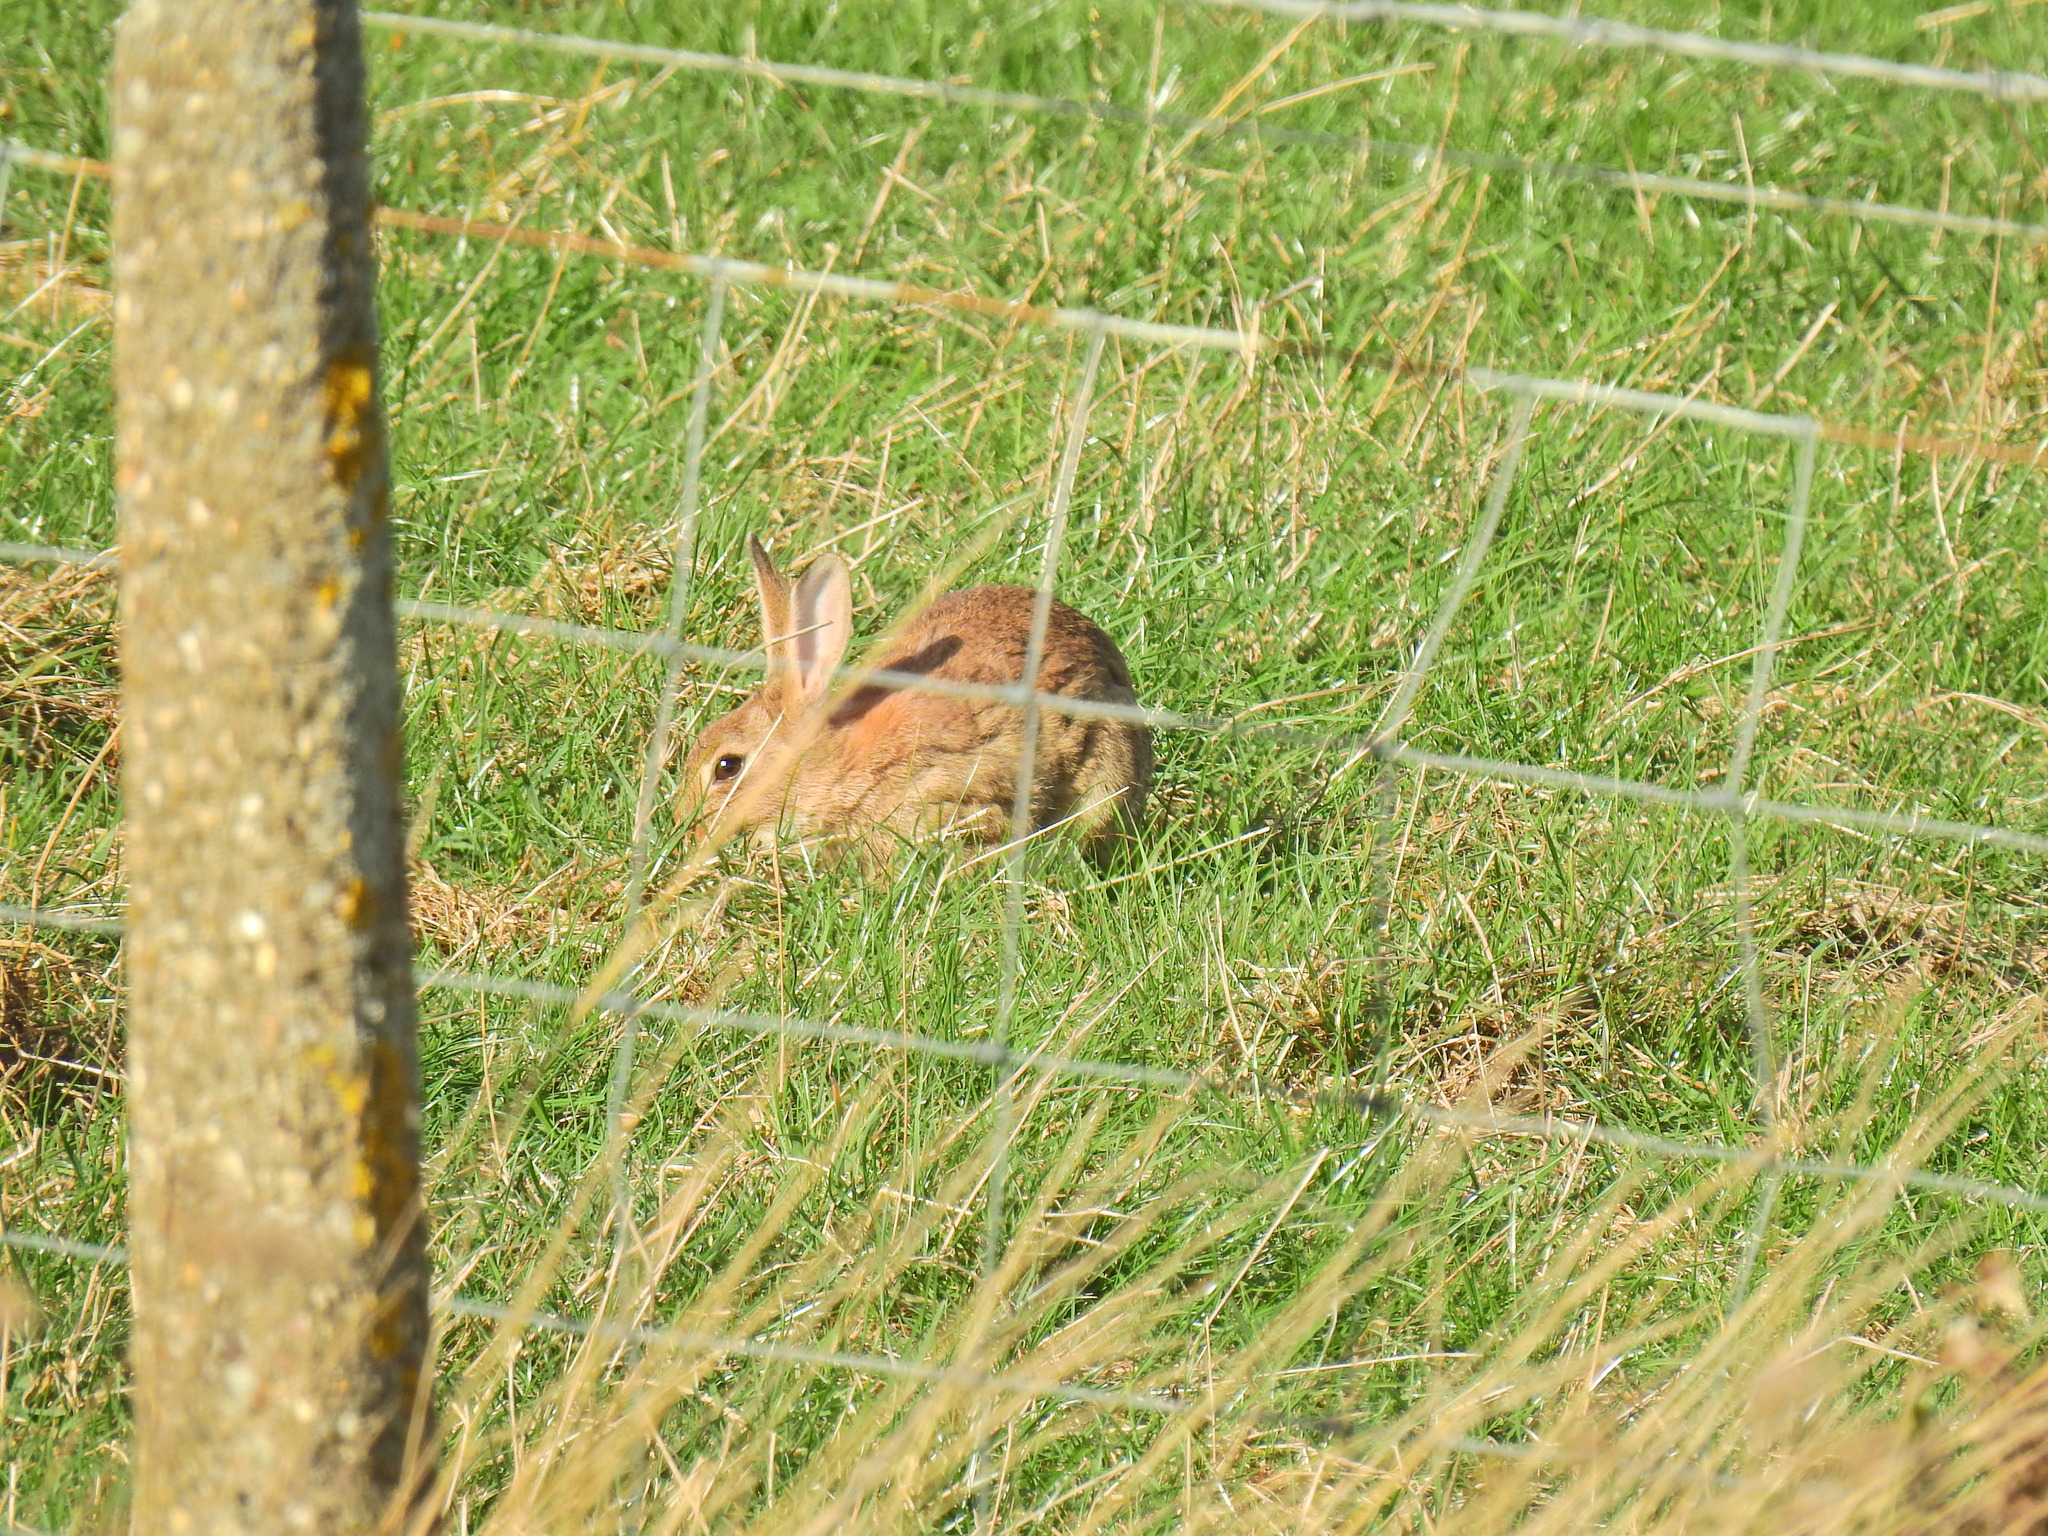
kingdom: Animalia
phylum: Chordata
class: Mammalia
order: Lagomorpha
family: Leporidae
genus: Oryctolagus
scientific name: Oryctolagus cuniculus
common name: European rabbit
